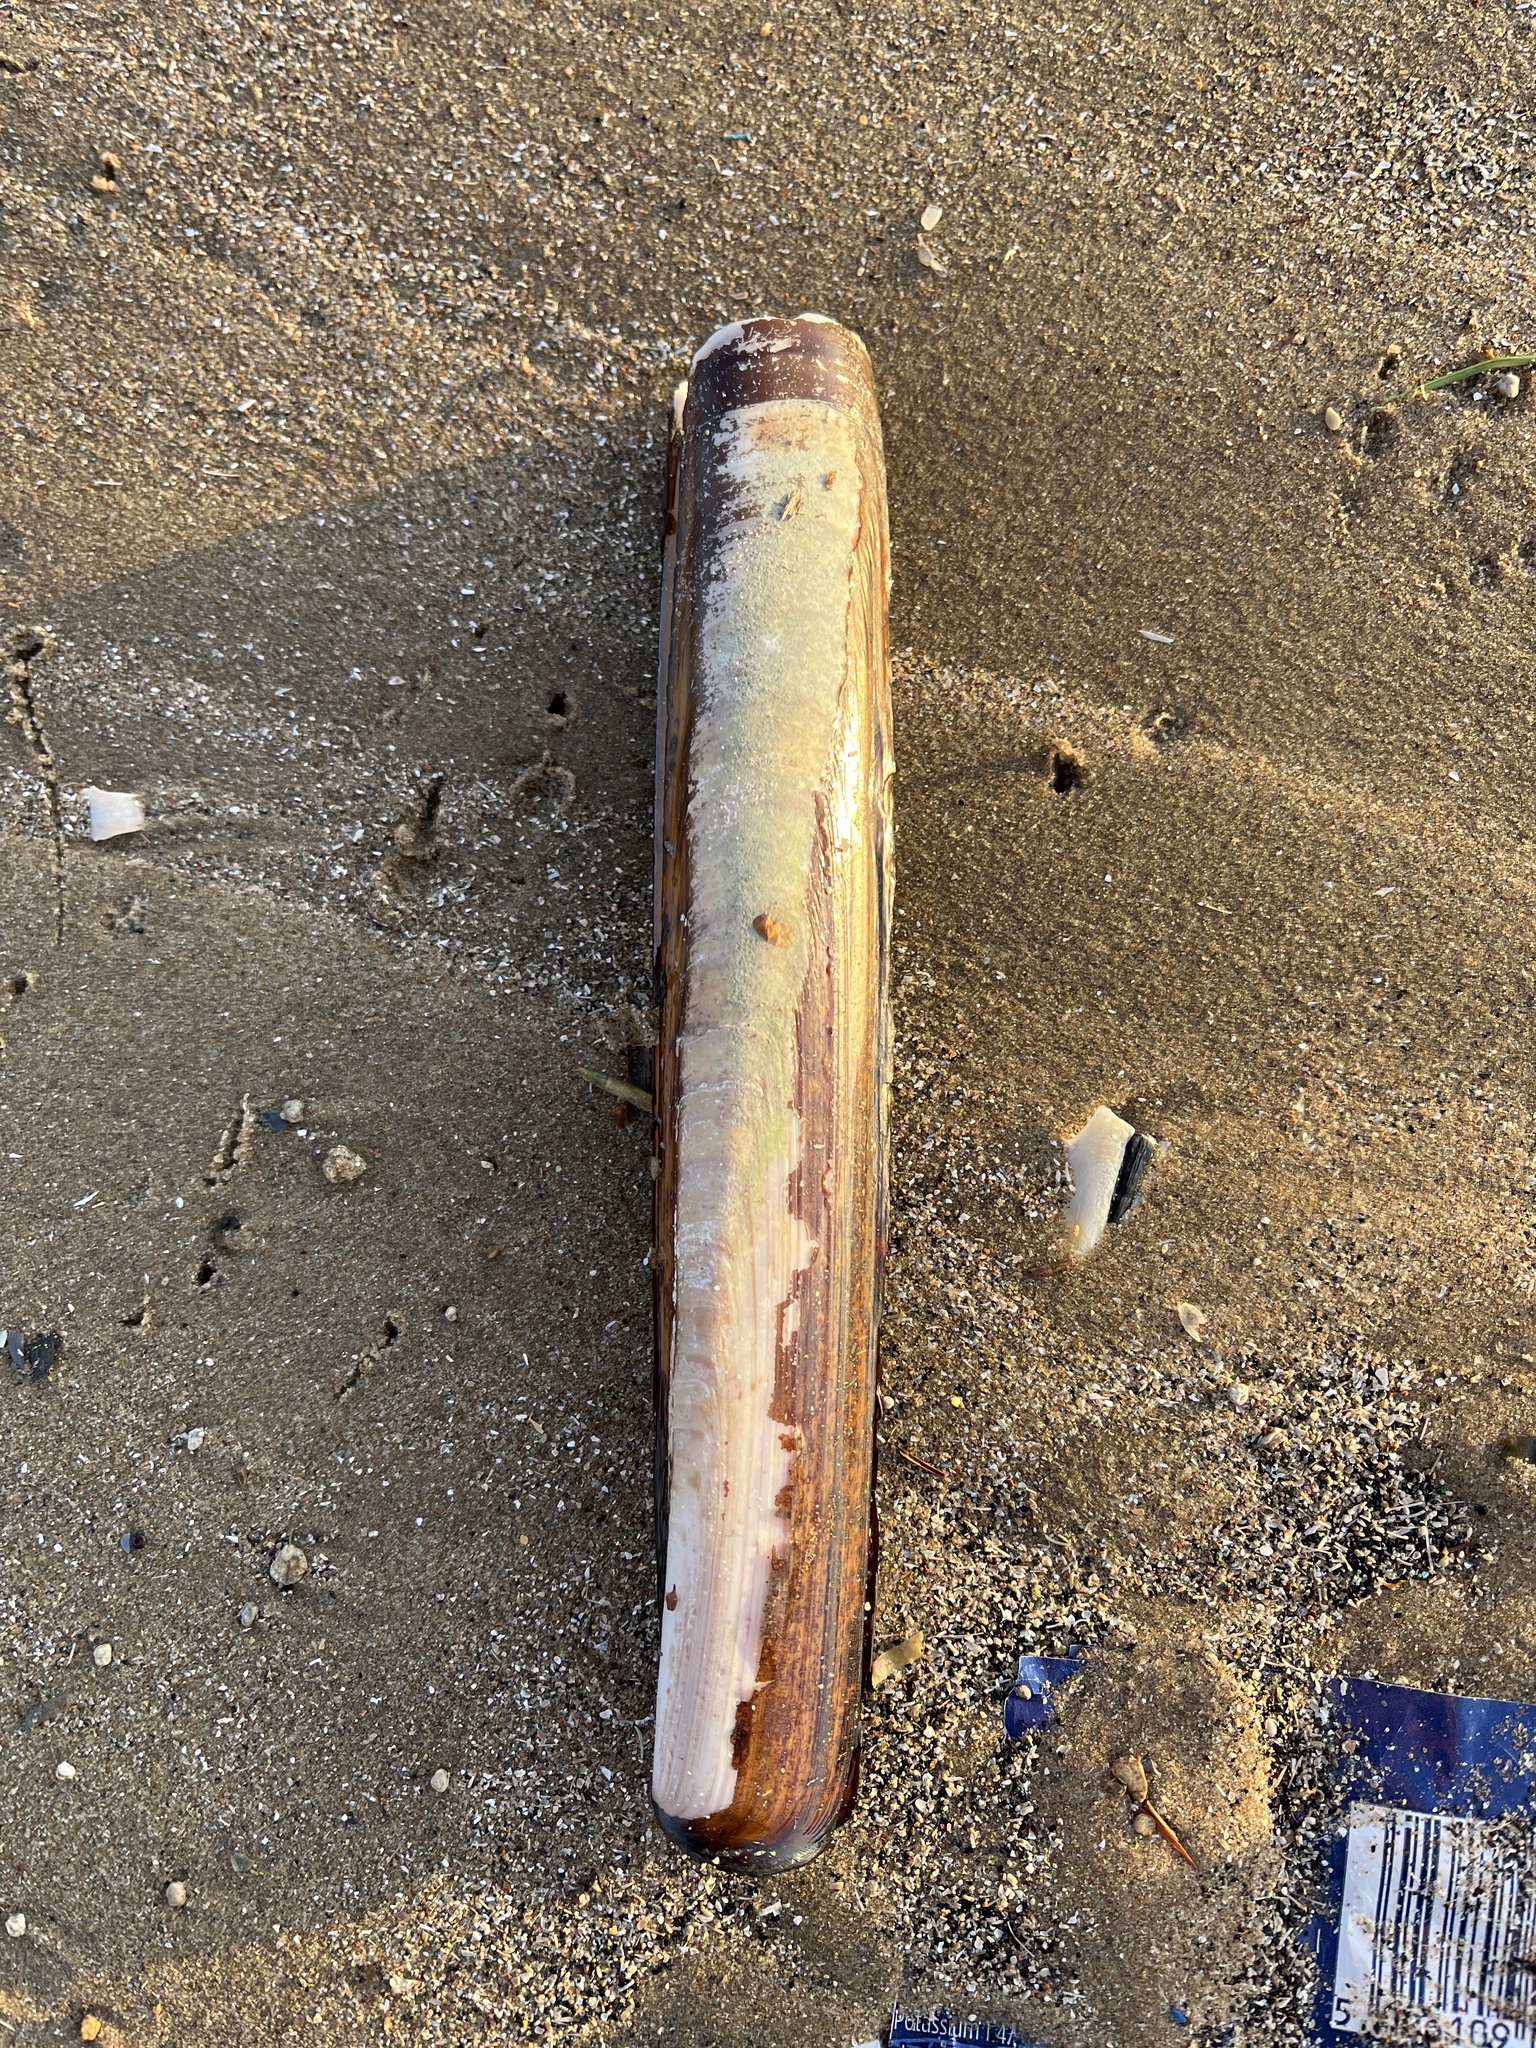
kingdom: Animalia
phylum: Mollusca
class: Bivalvia
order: Adapedonta
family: Pharidae
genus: Ensis
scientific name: Ensis siliqua
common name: Pod razor shell
